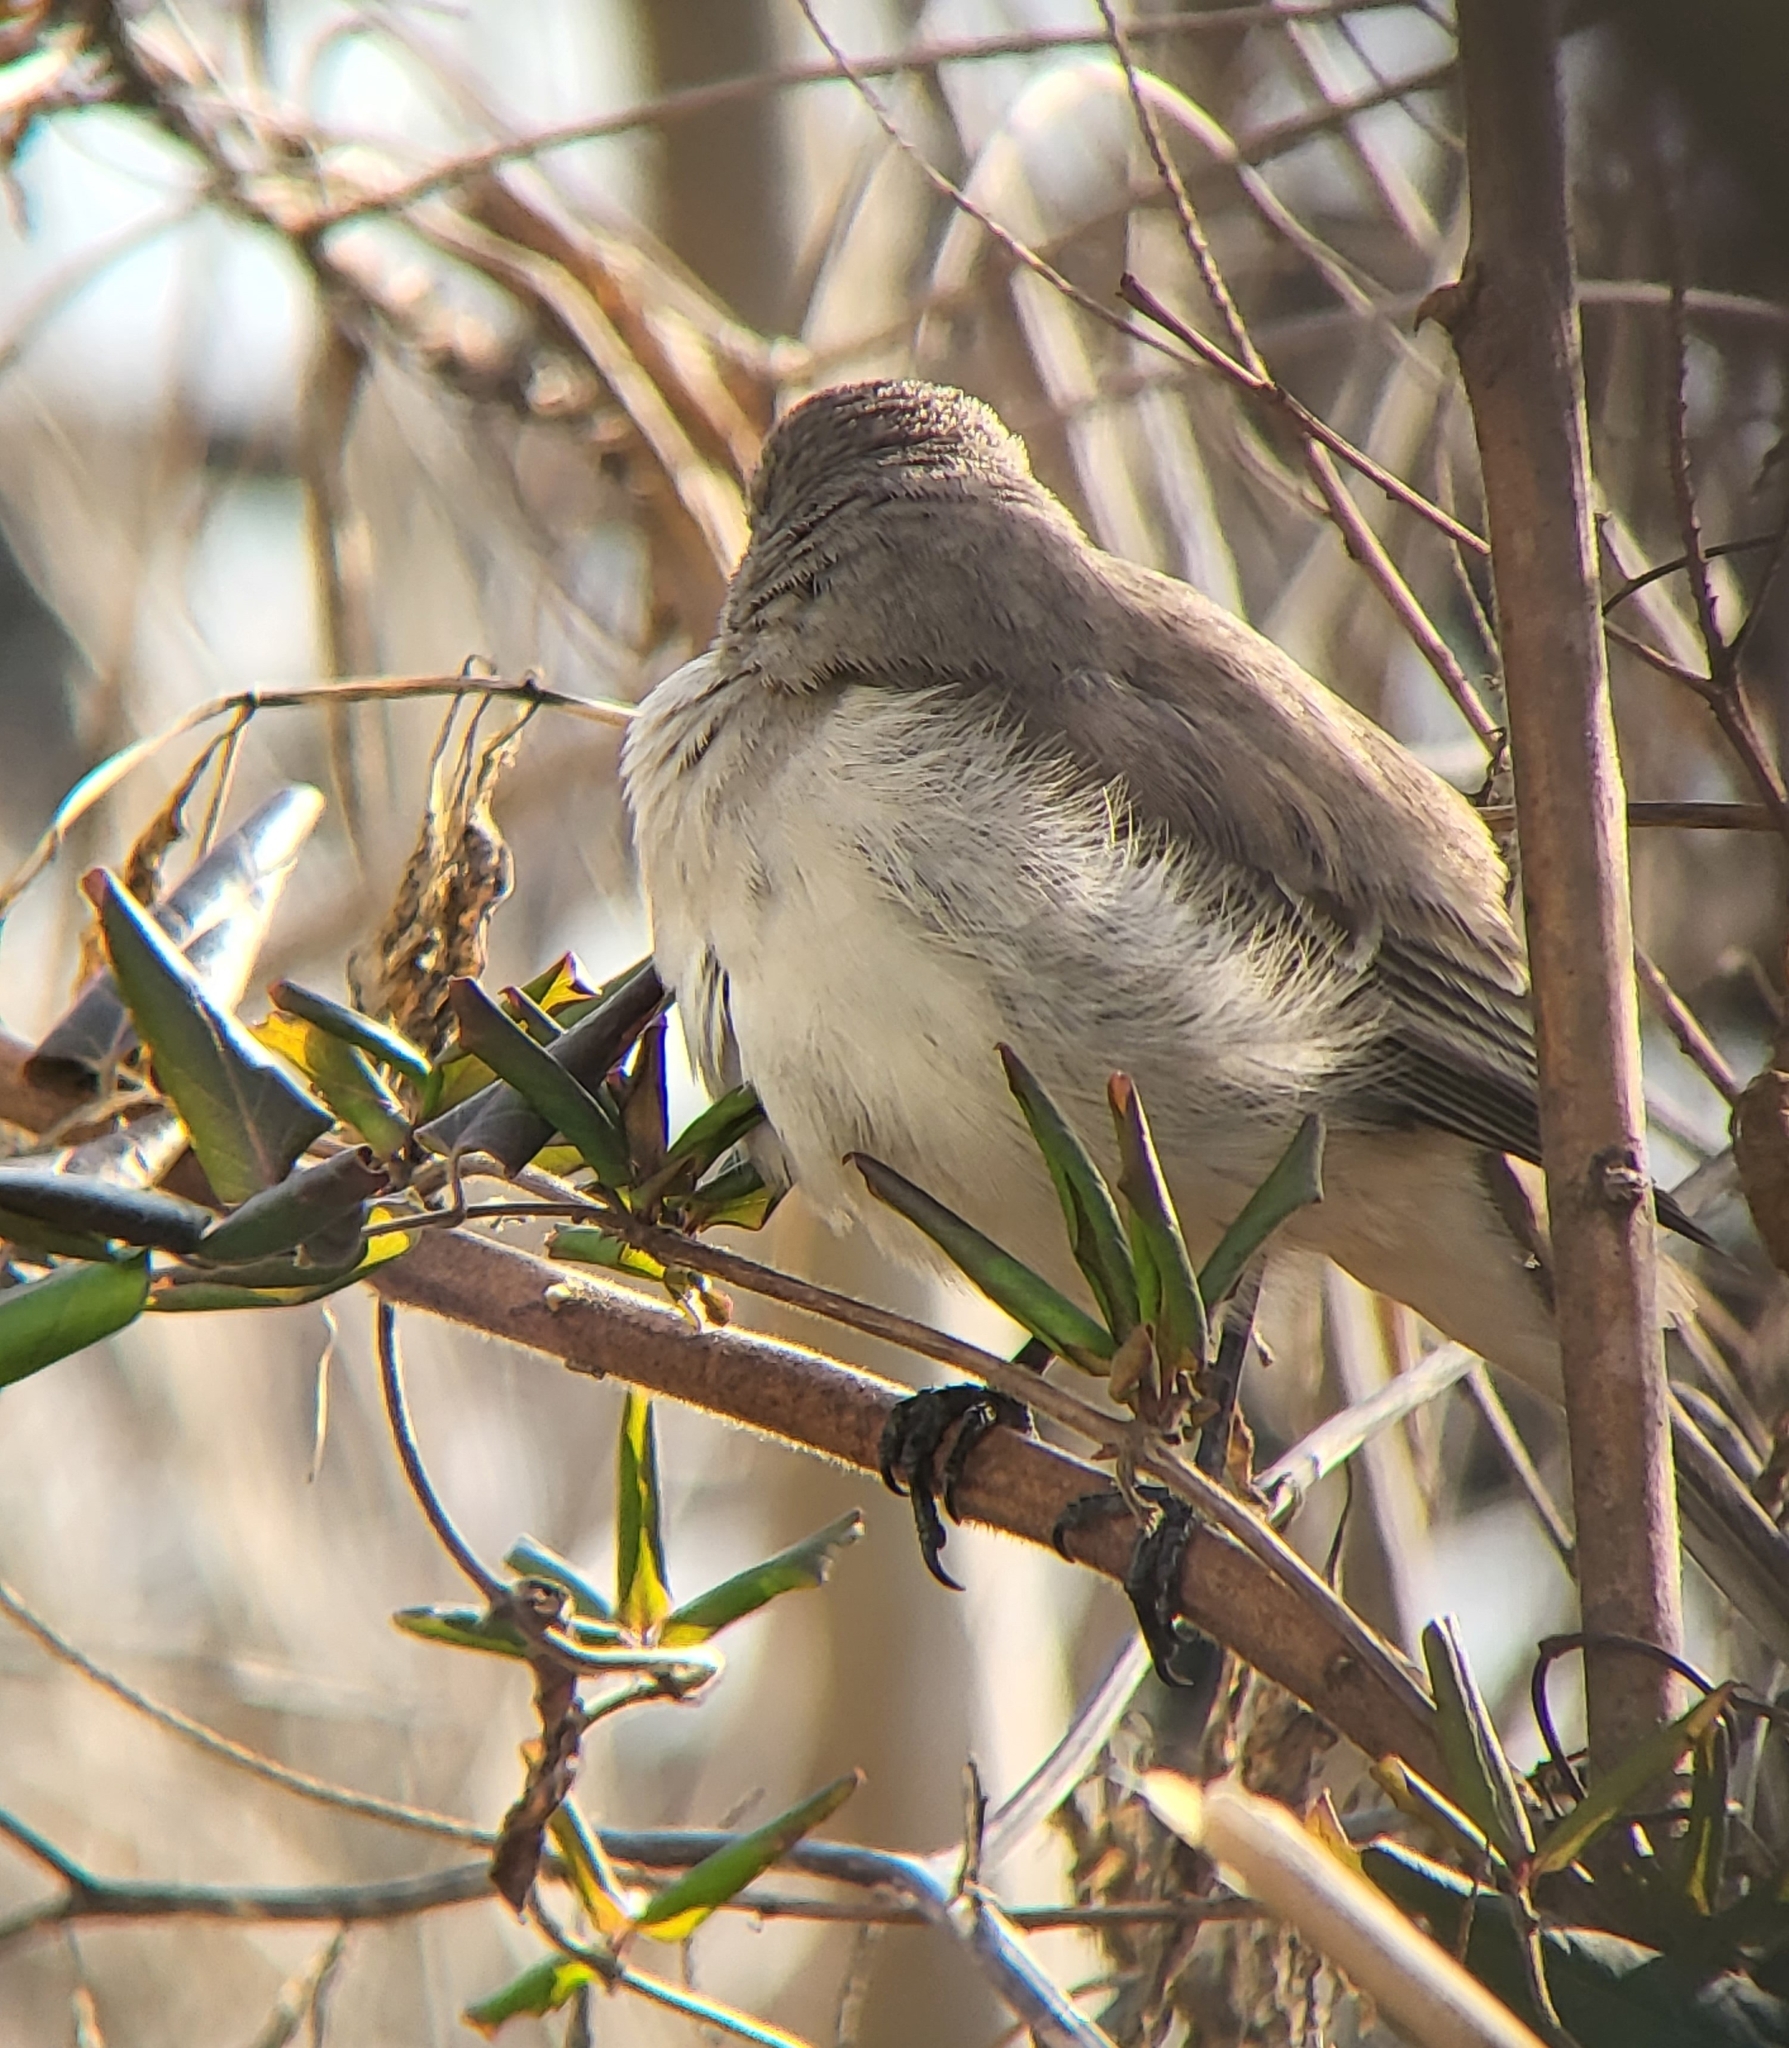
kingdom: Animalia
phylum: Chordata
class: Aves
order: Passeriformes
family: Mimidae
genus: Mimus
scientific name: Mimus polyglottos
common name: Northern mockingbird
